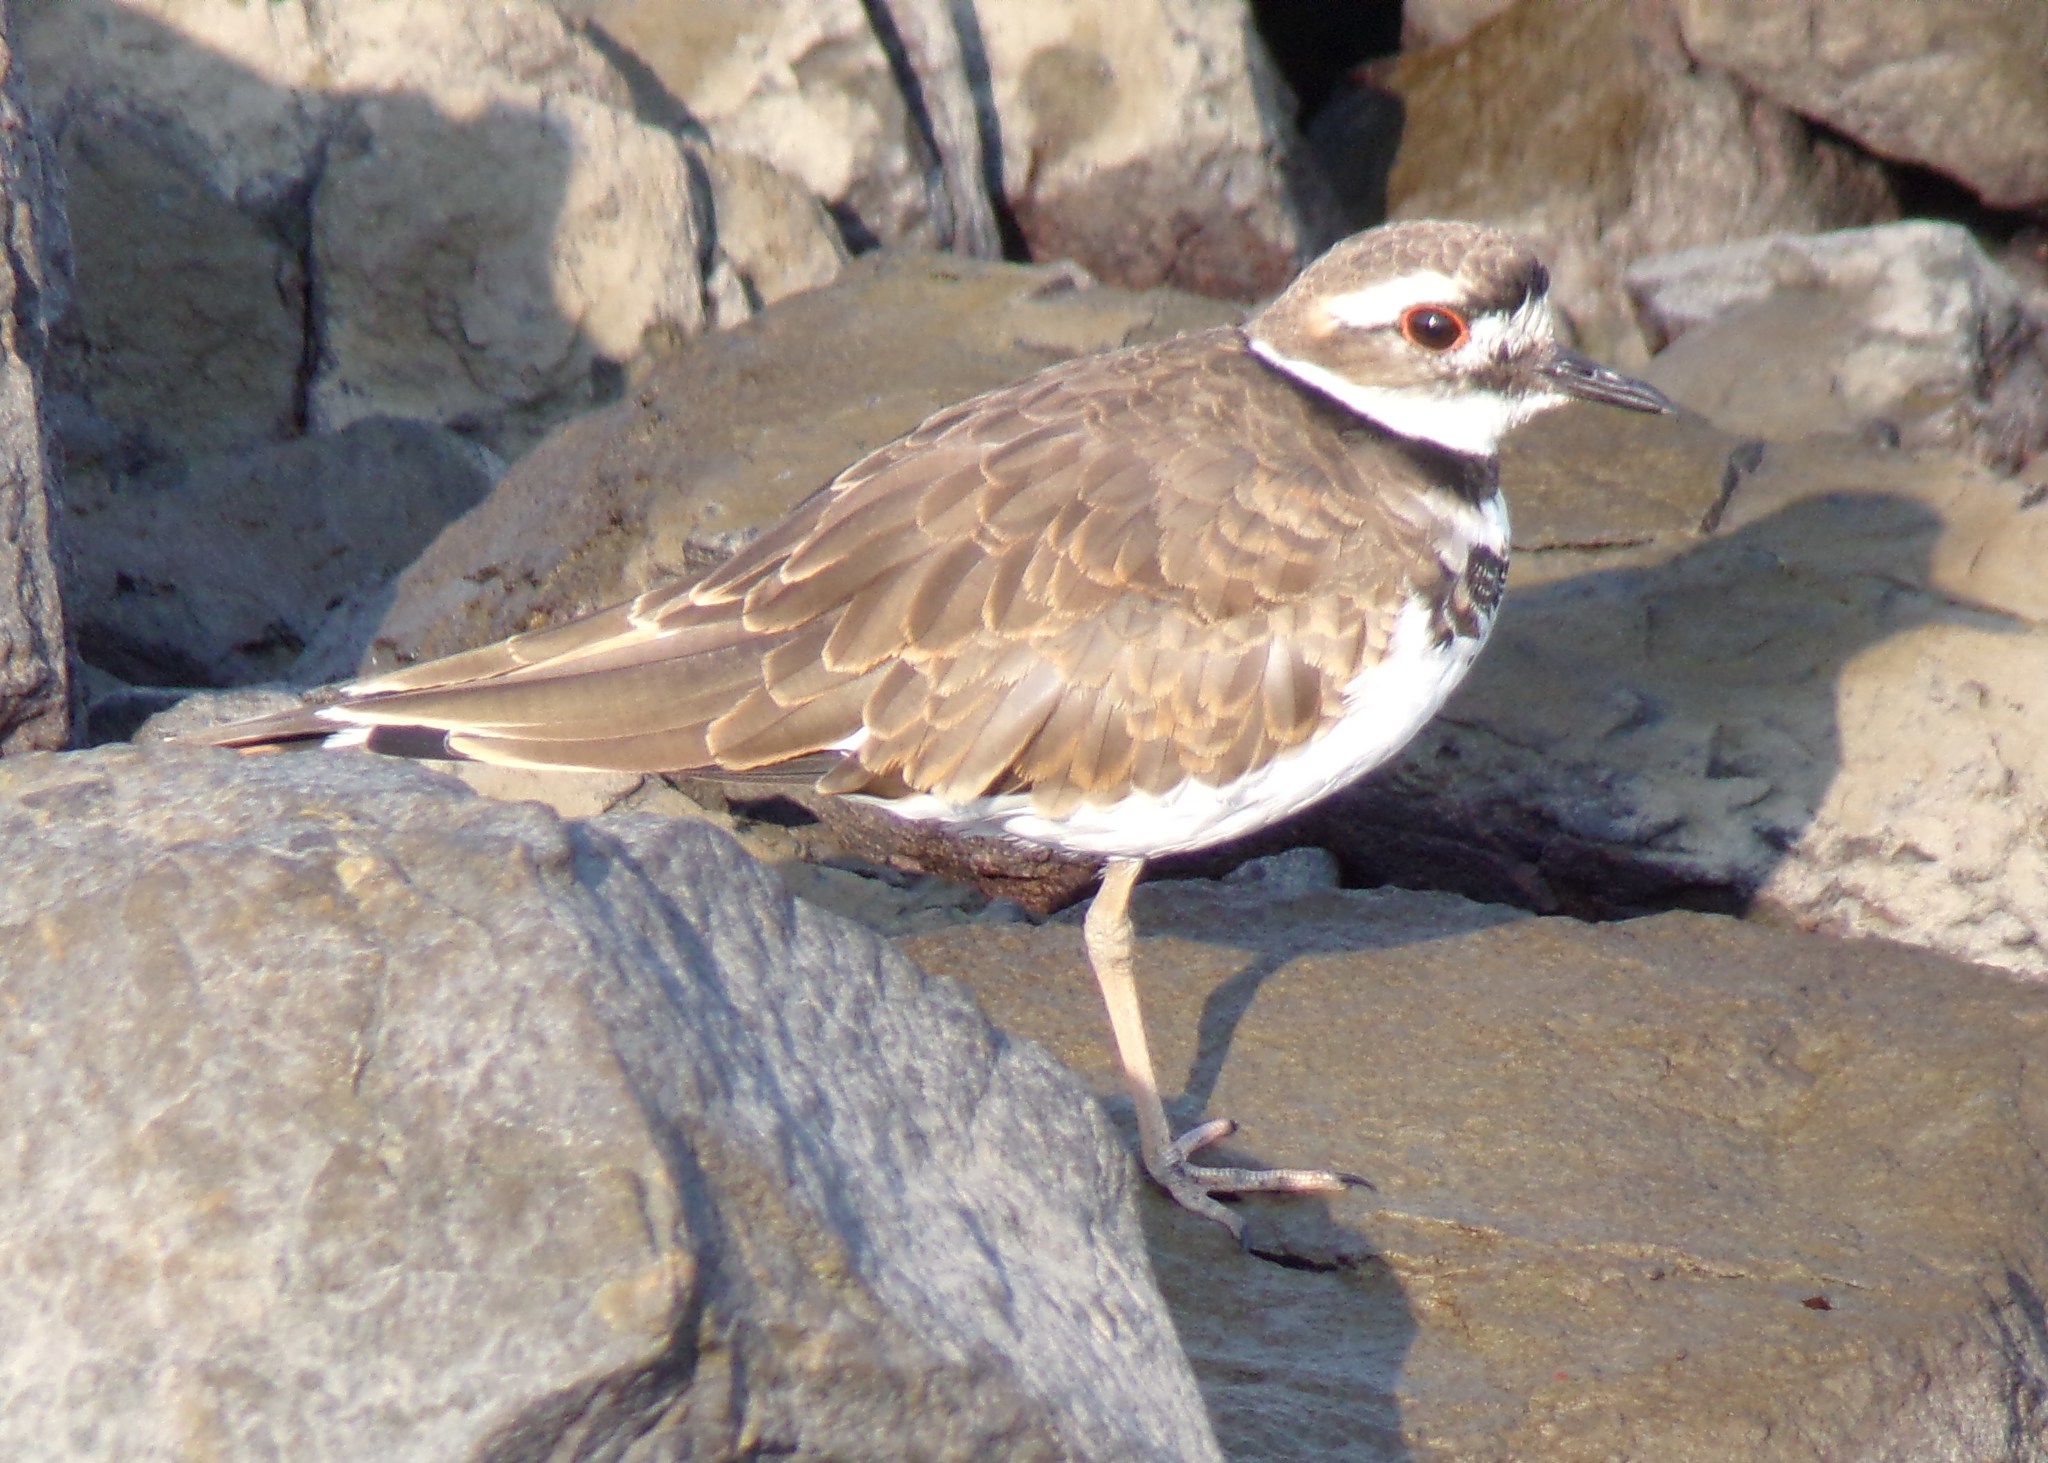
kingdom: Animalia
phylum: Chordata
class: Aves
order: Charadriiformes
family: Charadriidae
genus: Charadrius
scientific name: Charadrius vociferus
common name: Killdeer
